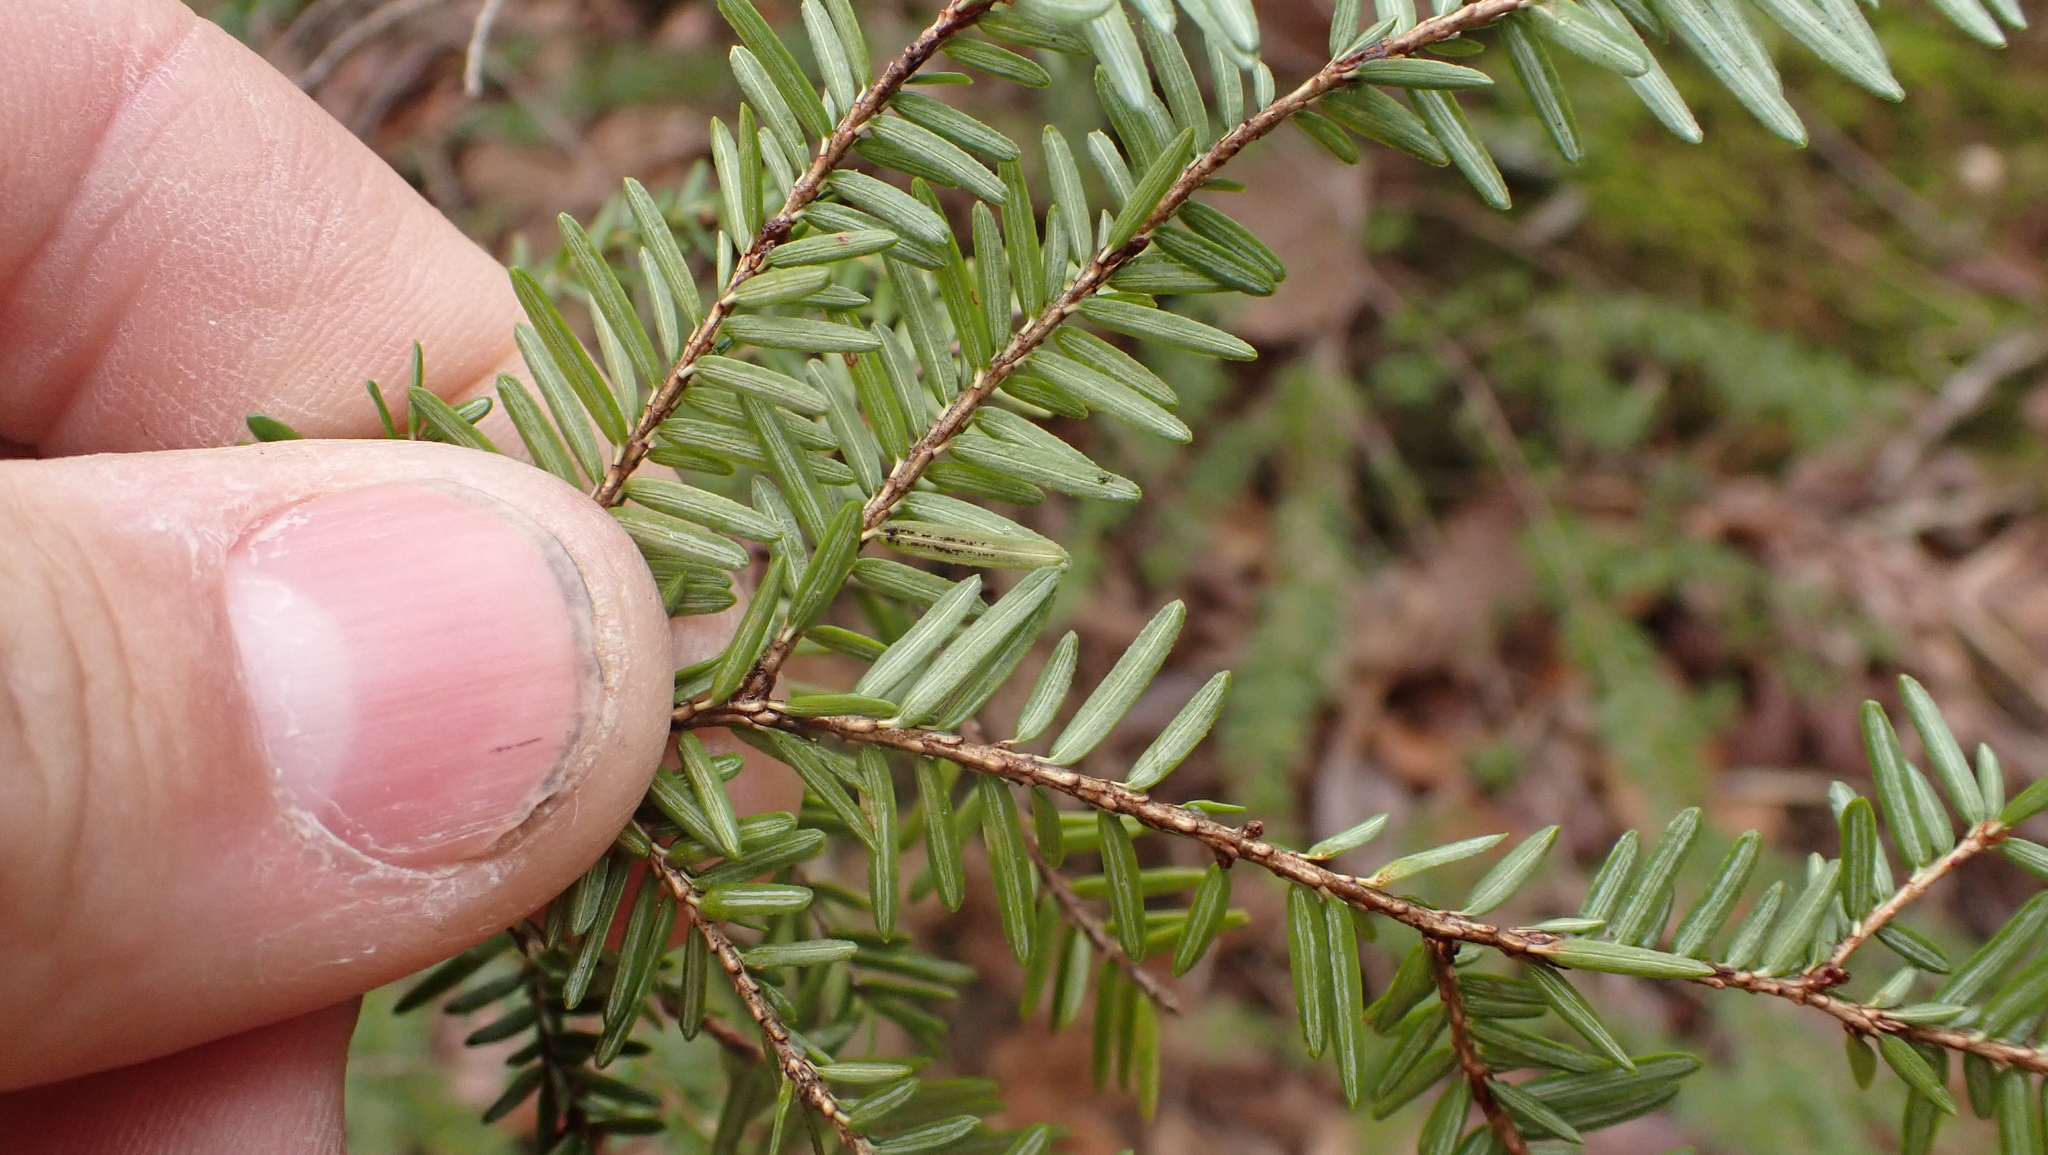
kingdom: Plantae
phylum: Tracheophyta
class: Pinopsida
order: Pinales
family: Pinaceae
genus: Tsuga
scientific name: Tsuga canadensis
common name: Eastern hemlock
